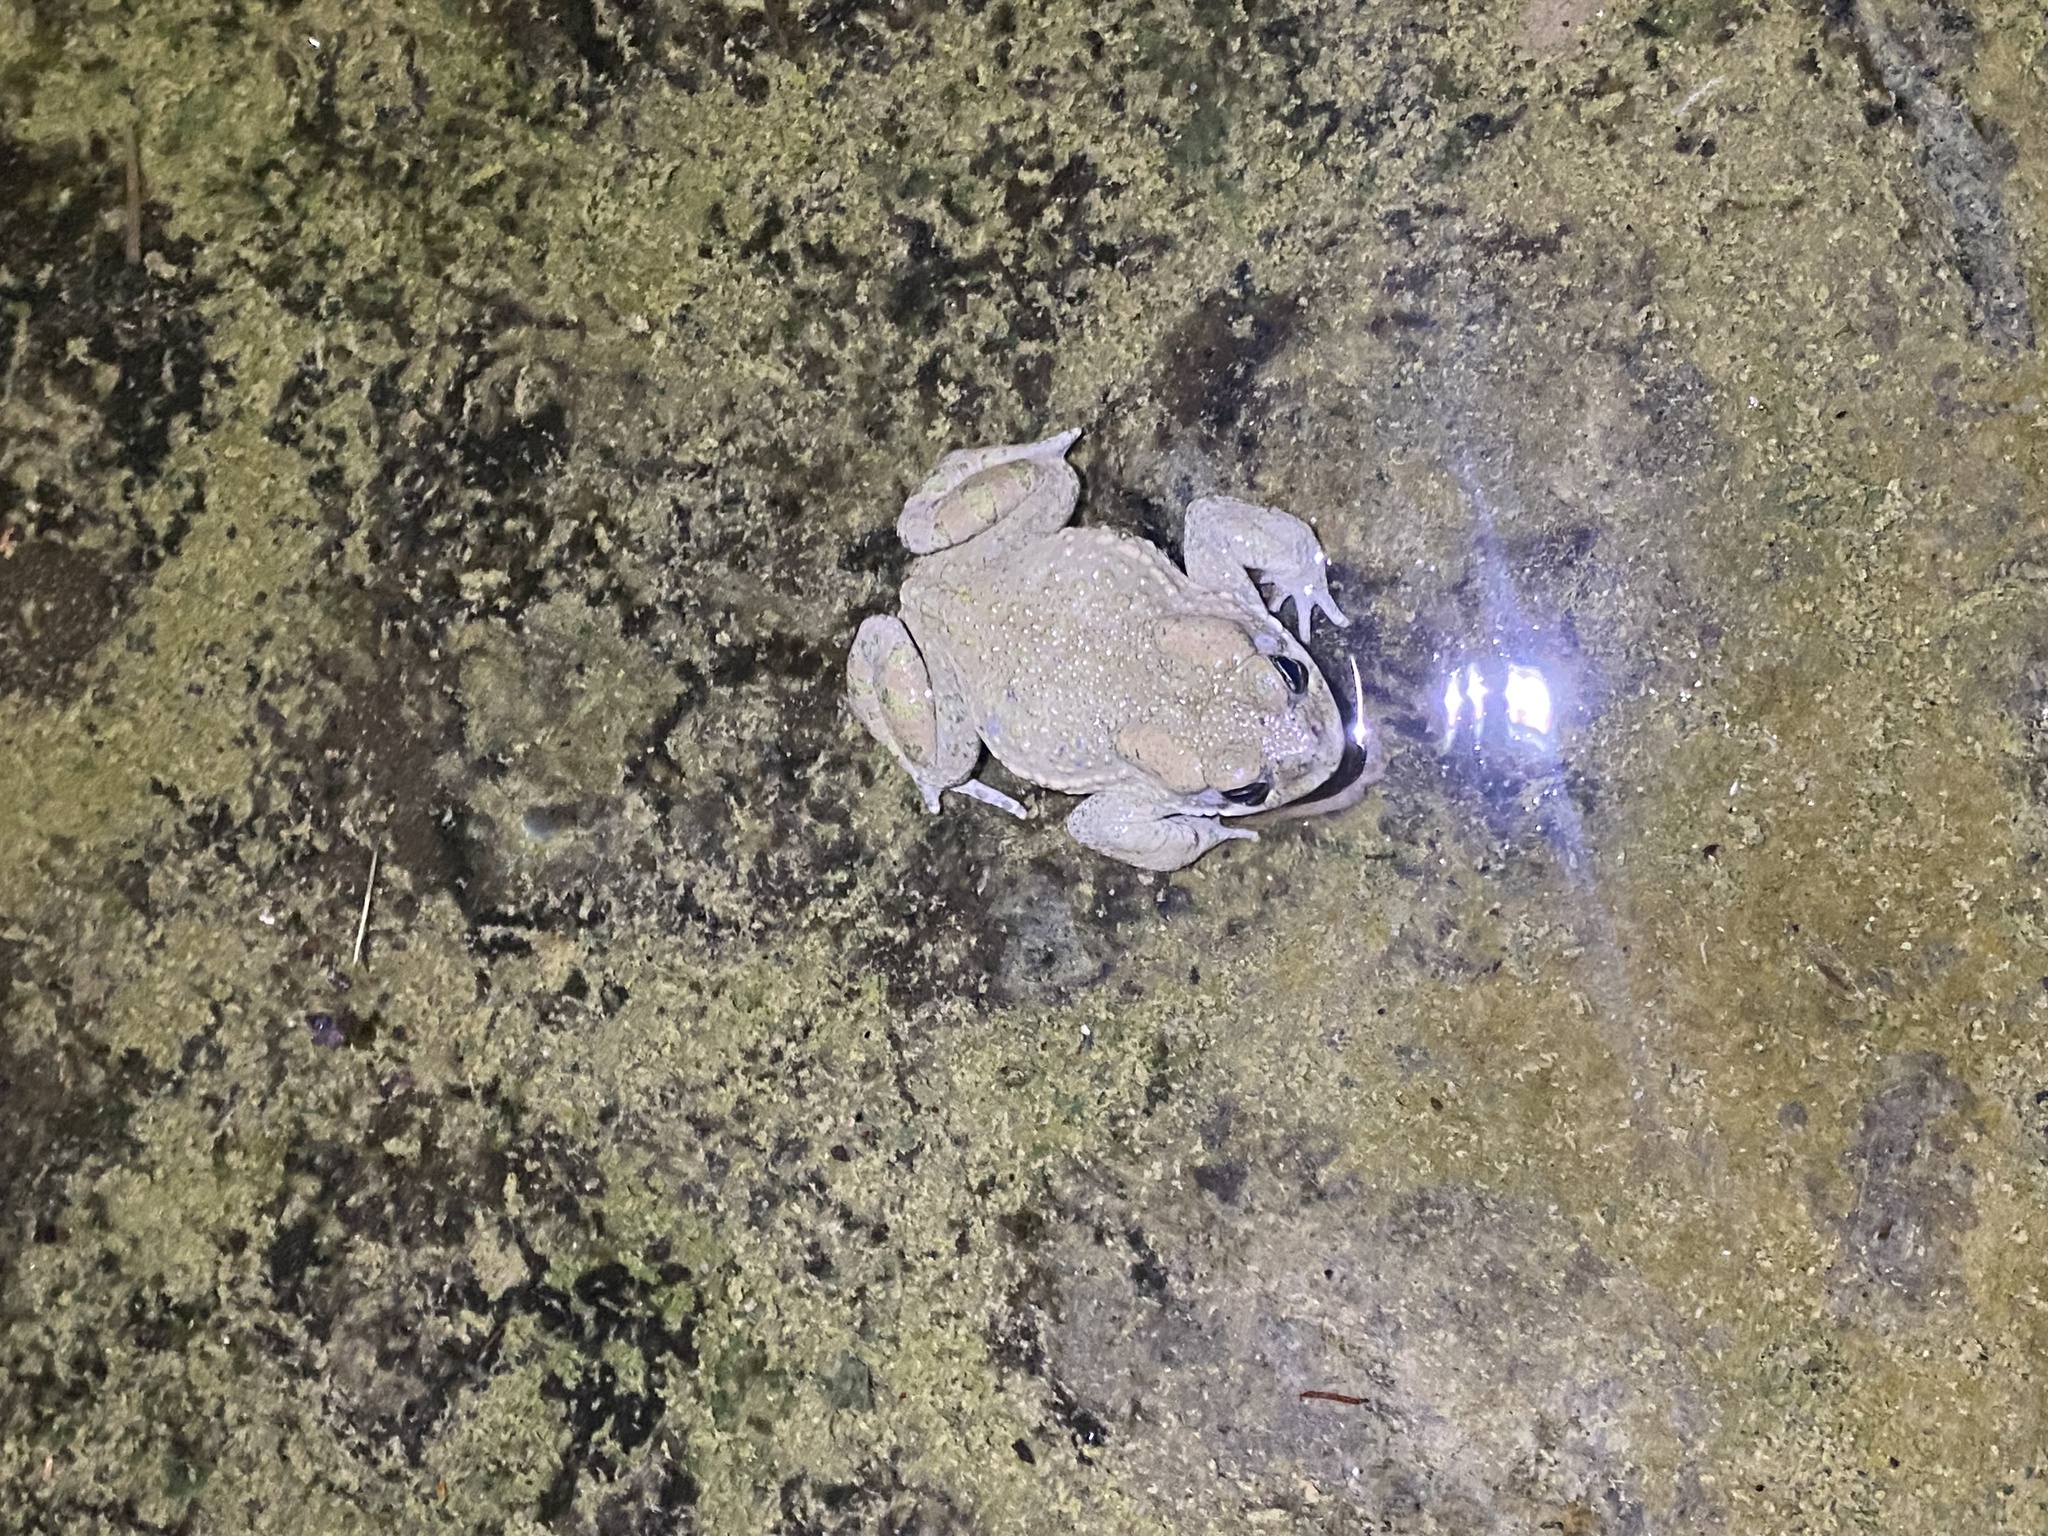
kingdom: Animalia
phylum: Chordata
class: Amphibia
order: Anura
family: Bufonidae
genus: Bufotes
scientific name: Bufotes viridis
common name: European green toad
